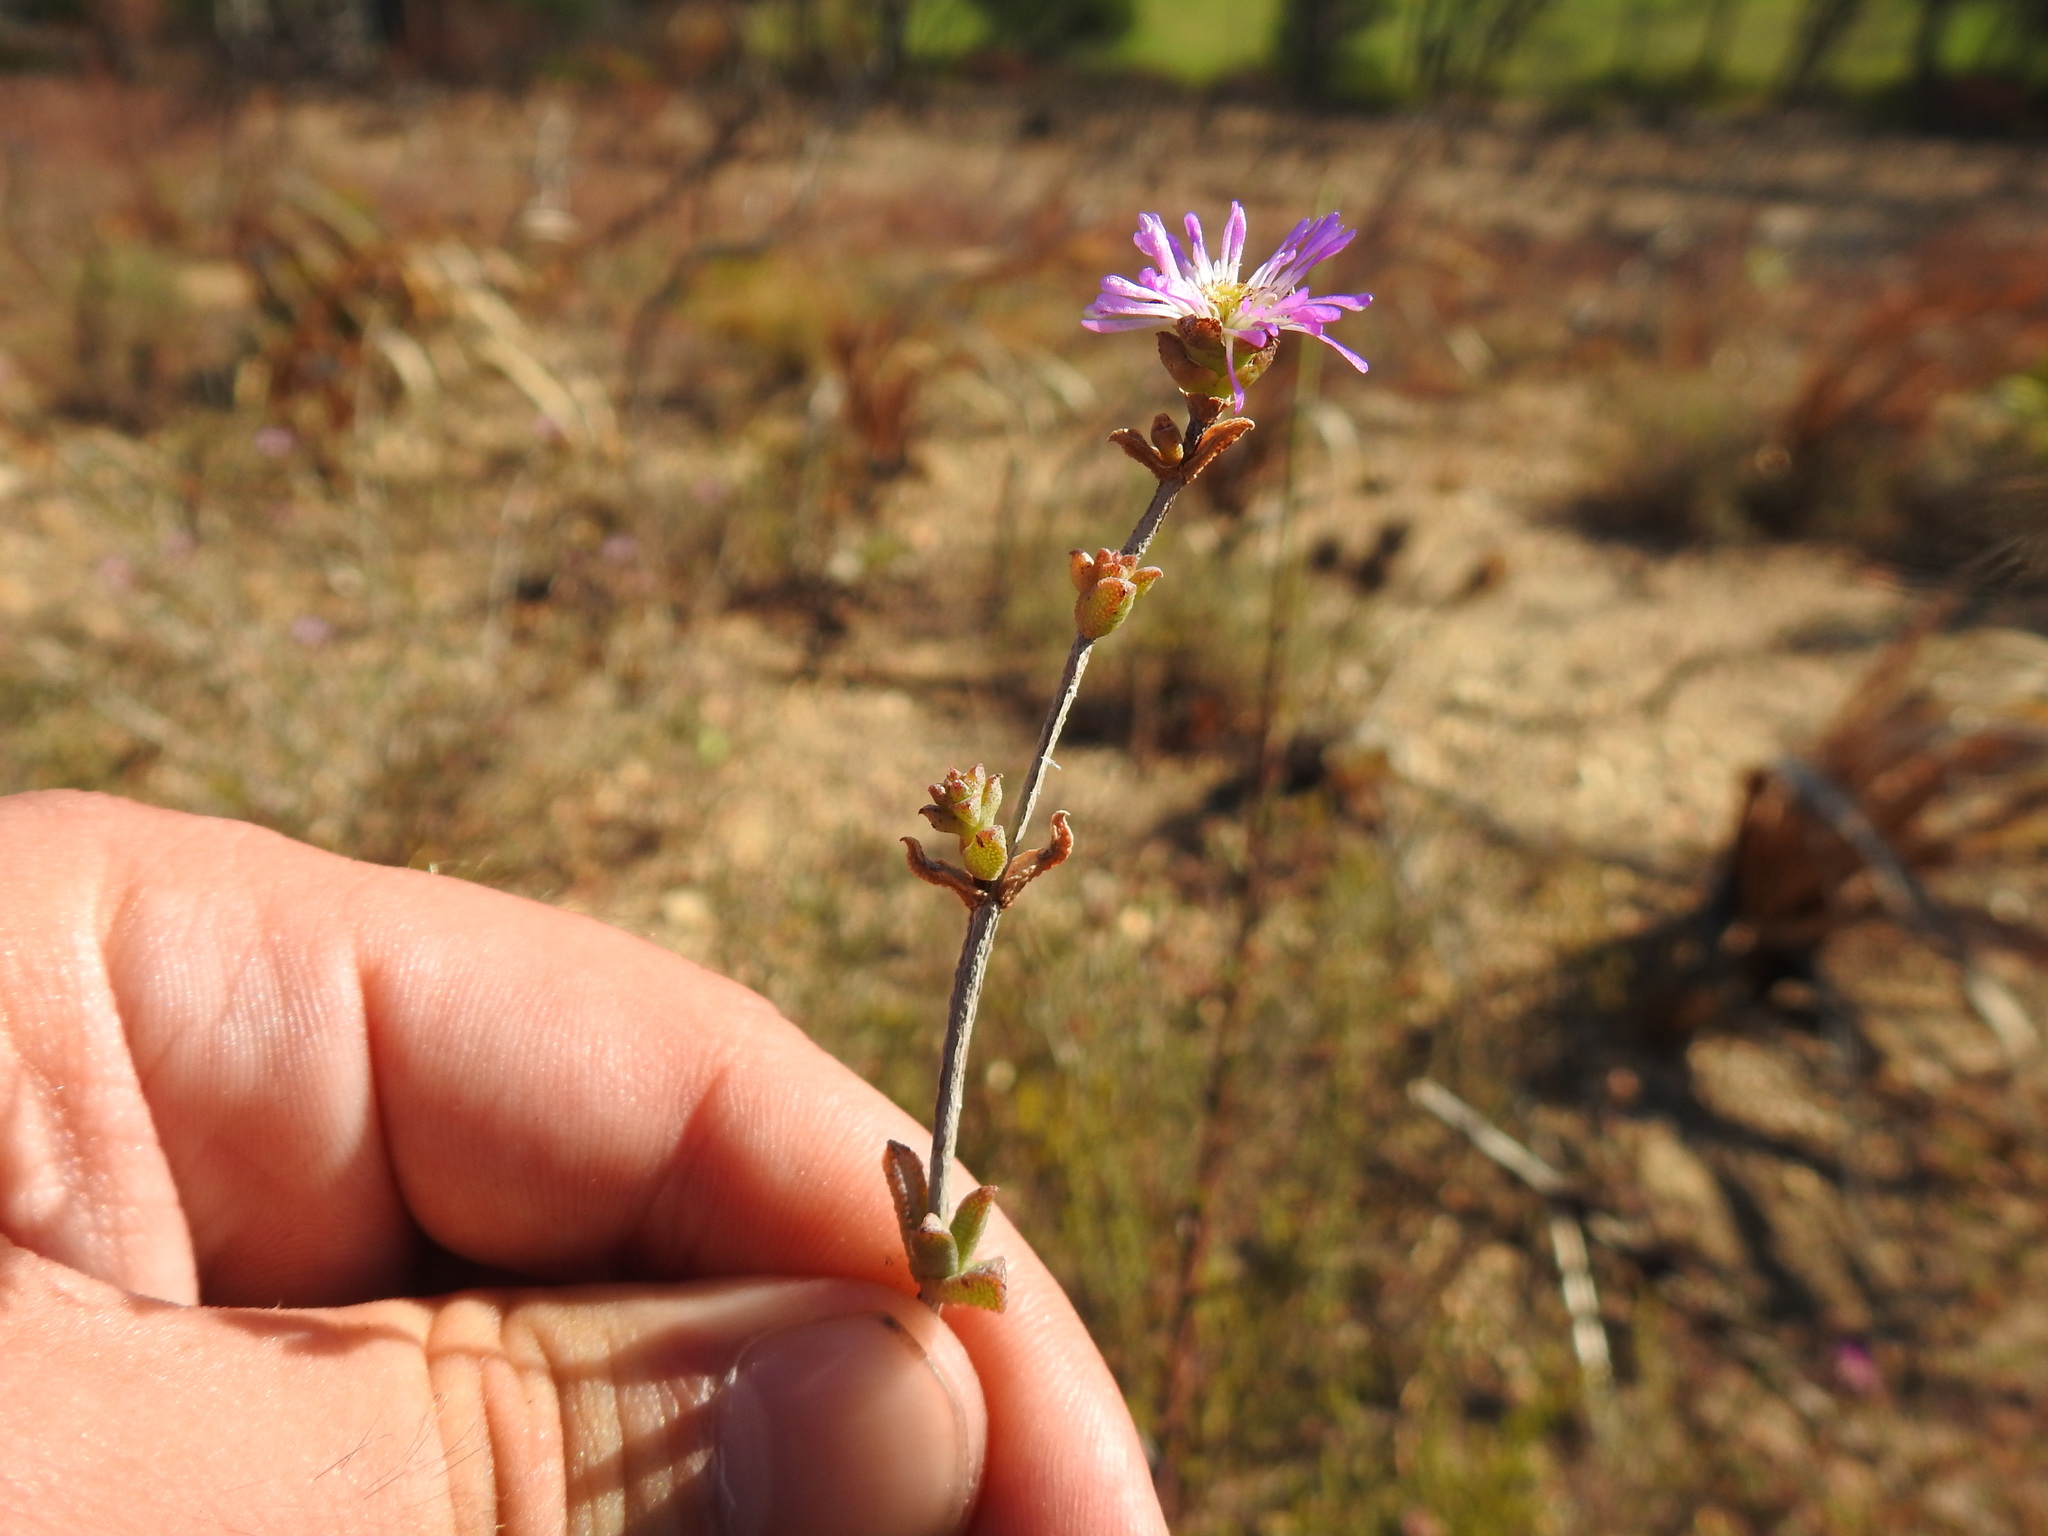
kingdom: Plantae
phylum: Tracheophyta
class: Magnoliopsida
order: Caryophyllales
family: Aizoaceae
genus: Erepsia
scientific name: Erepsia patula
